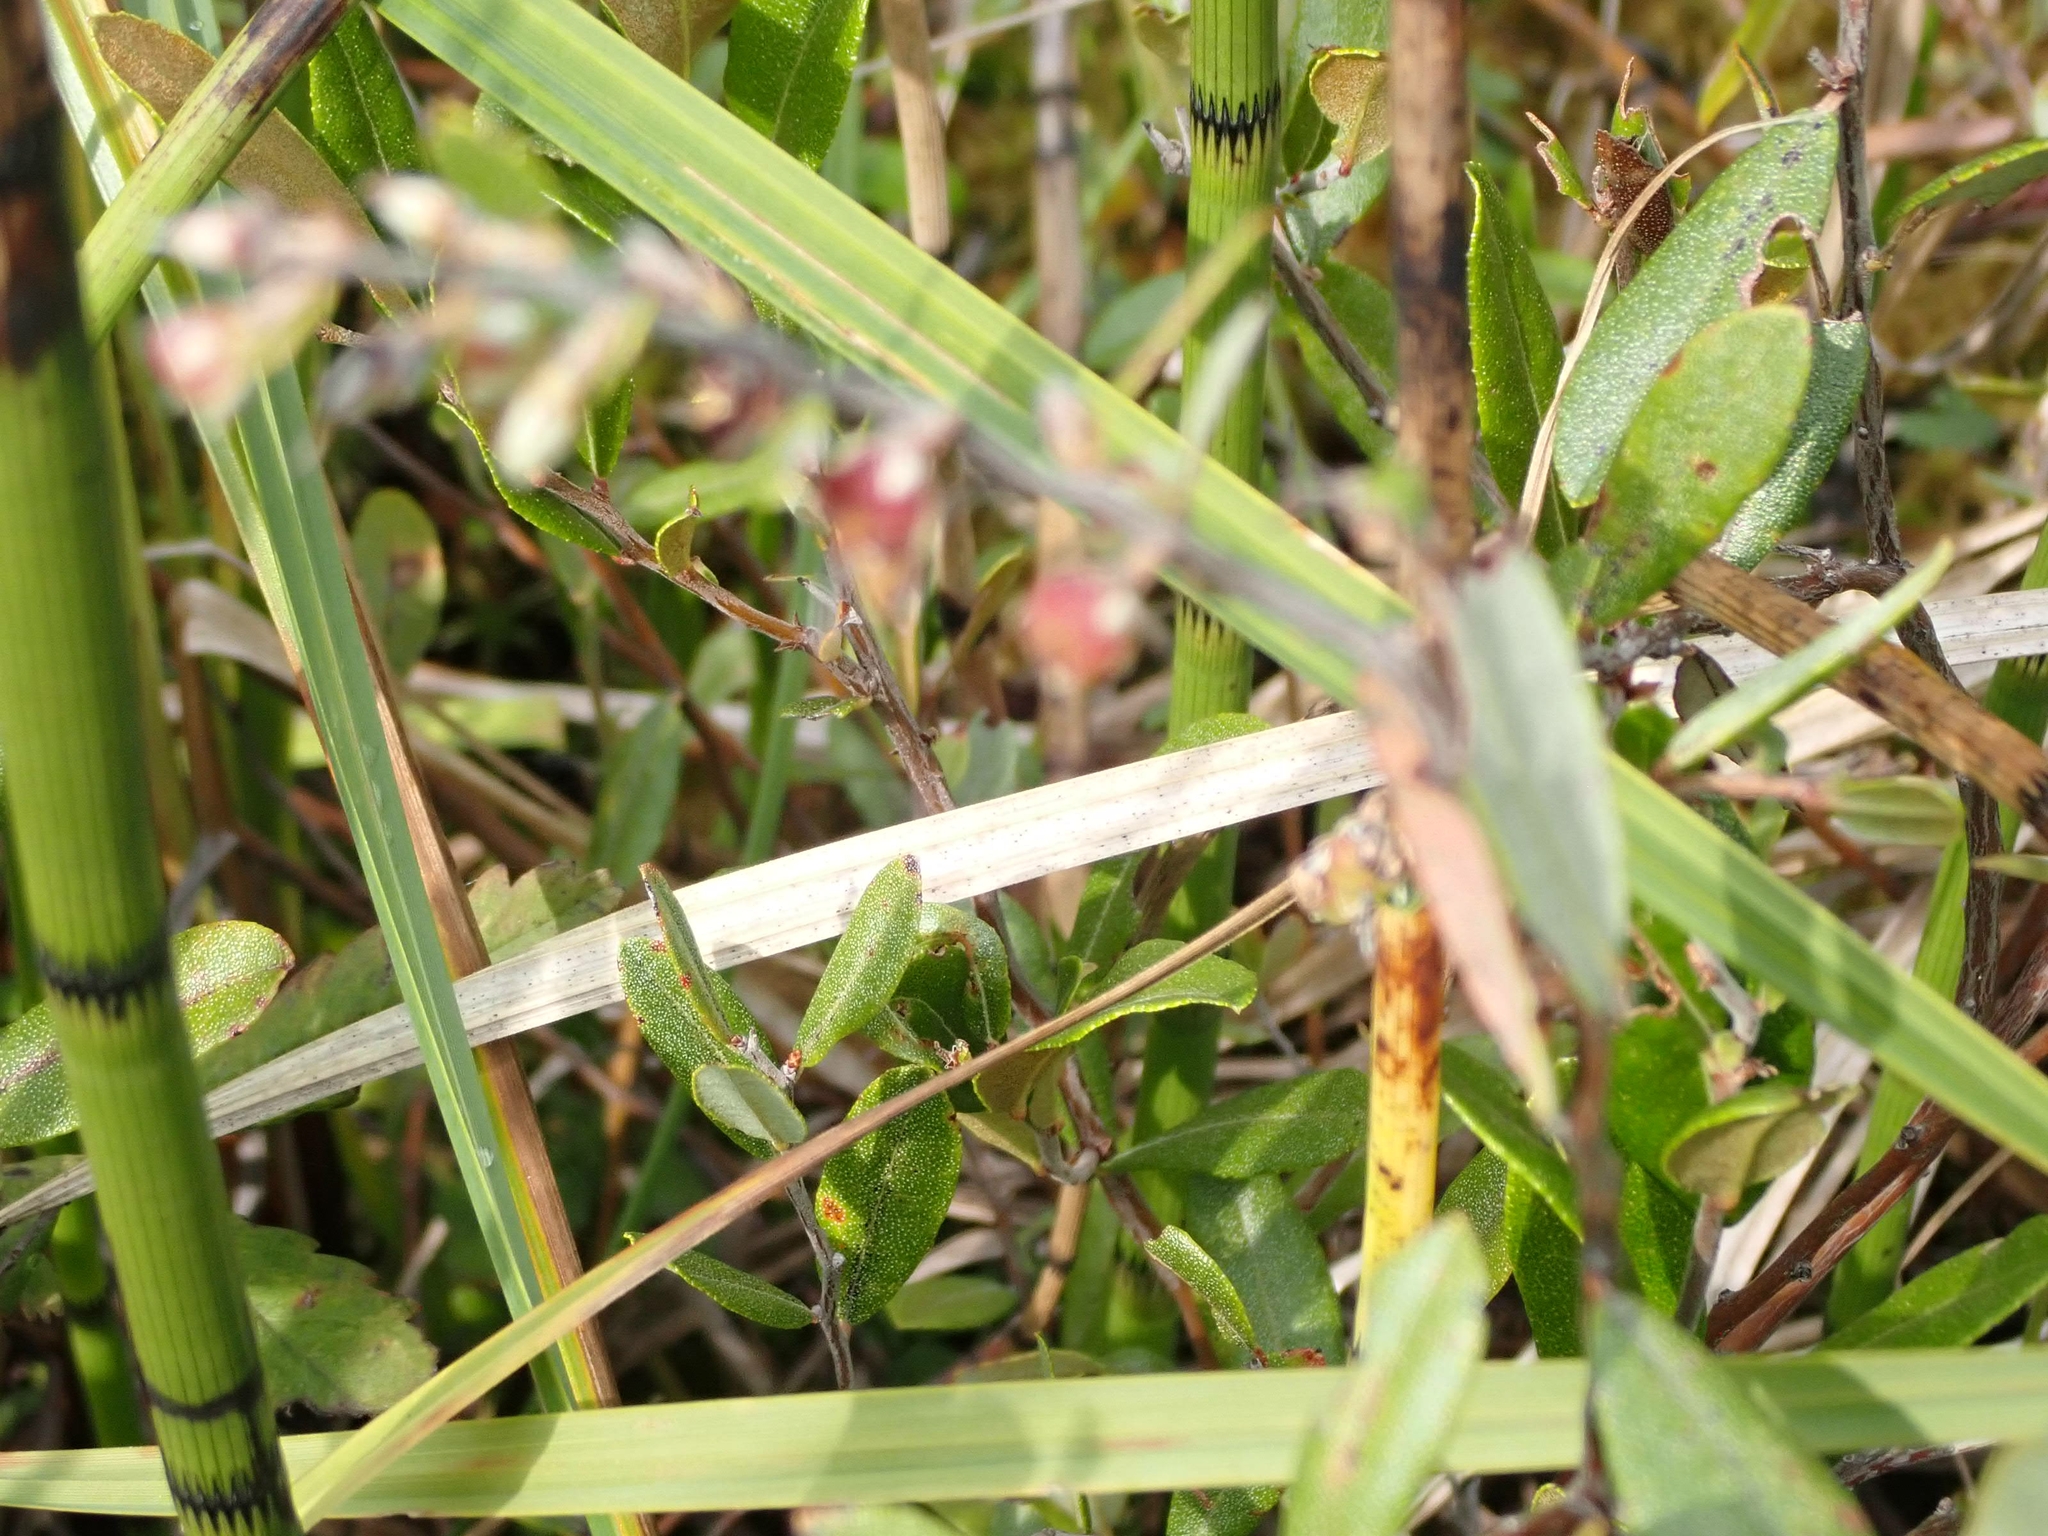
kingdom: Plantae
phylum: Tracheophyta
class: Polypodiopsida
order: Equisetales
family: Equisetaceae
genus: Equisetum
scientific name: Equisetum fluviatile
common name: Water horsetail
